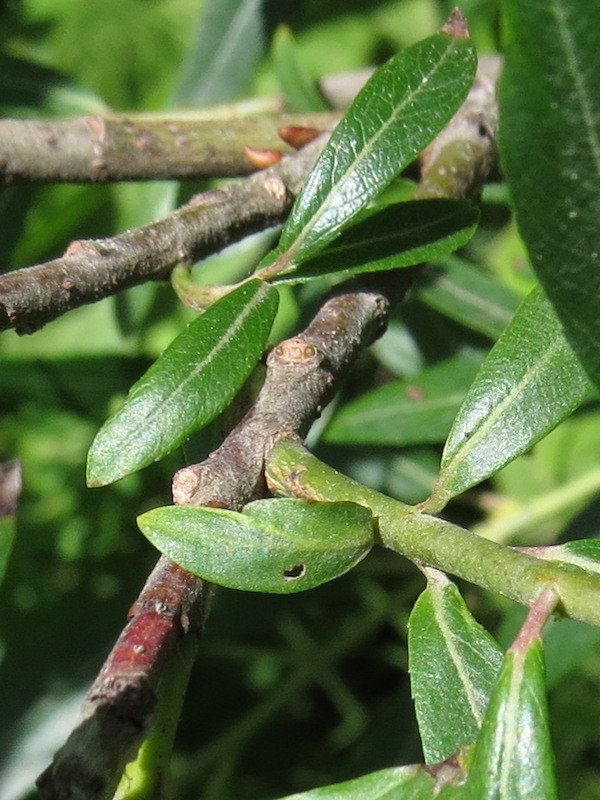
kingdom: Animalia
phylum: Arthropoda
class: Insecta
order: Diptera
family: Cecidomyiidae
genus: Rabdophaga
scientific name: Rabdophaga strobiloides
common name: Willow pinecone gall midge
